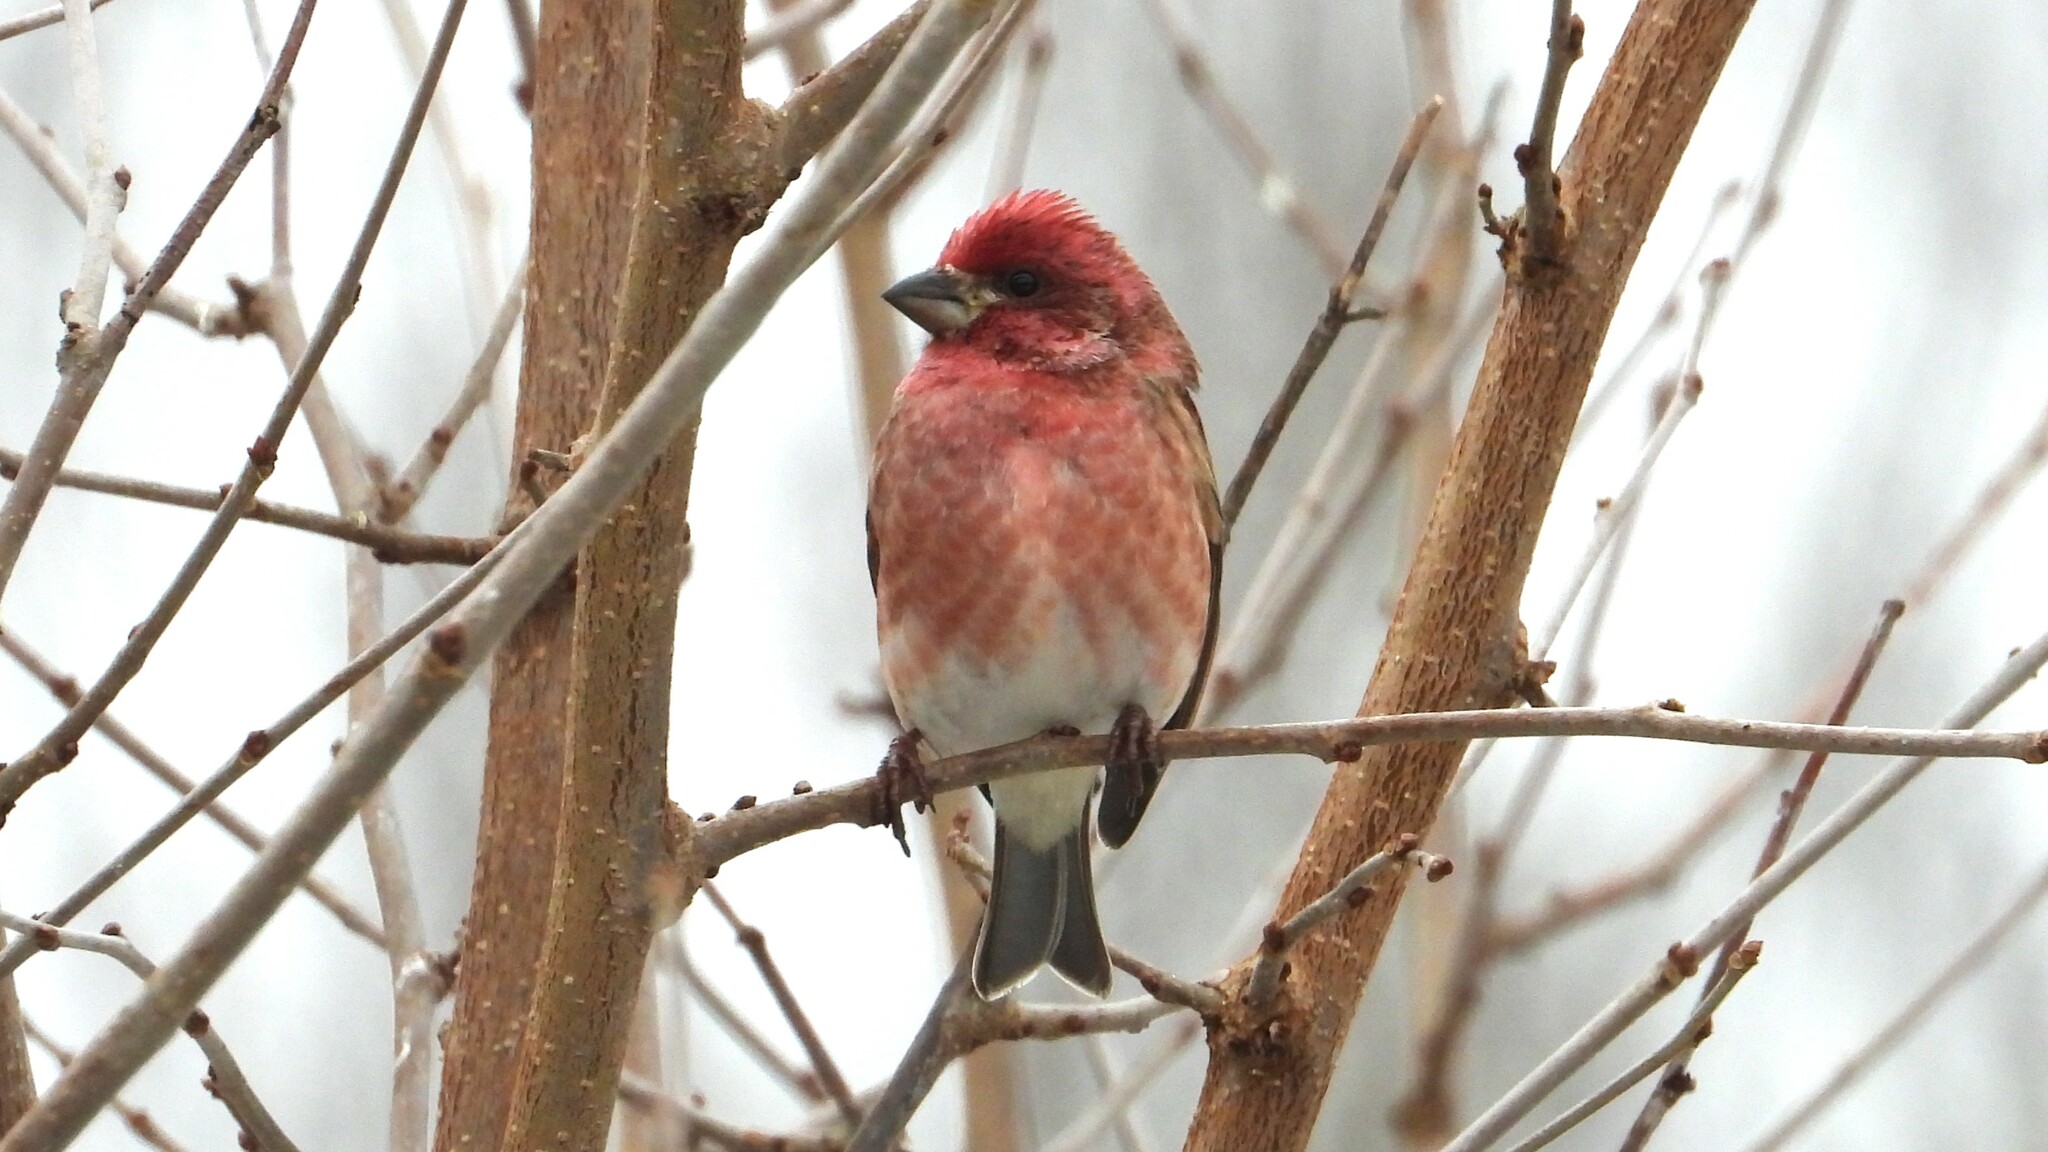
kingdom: Animalia
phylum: Chordata
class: Aves
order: Passeriformes
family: Fringillidae
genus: Haemorhous
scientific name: Haemorhous purpureus
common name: Purple finch
